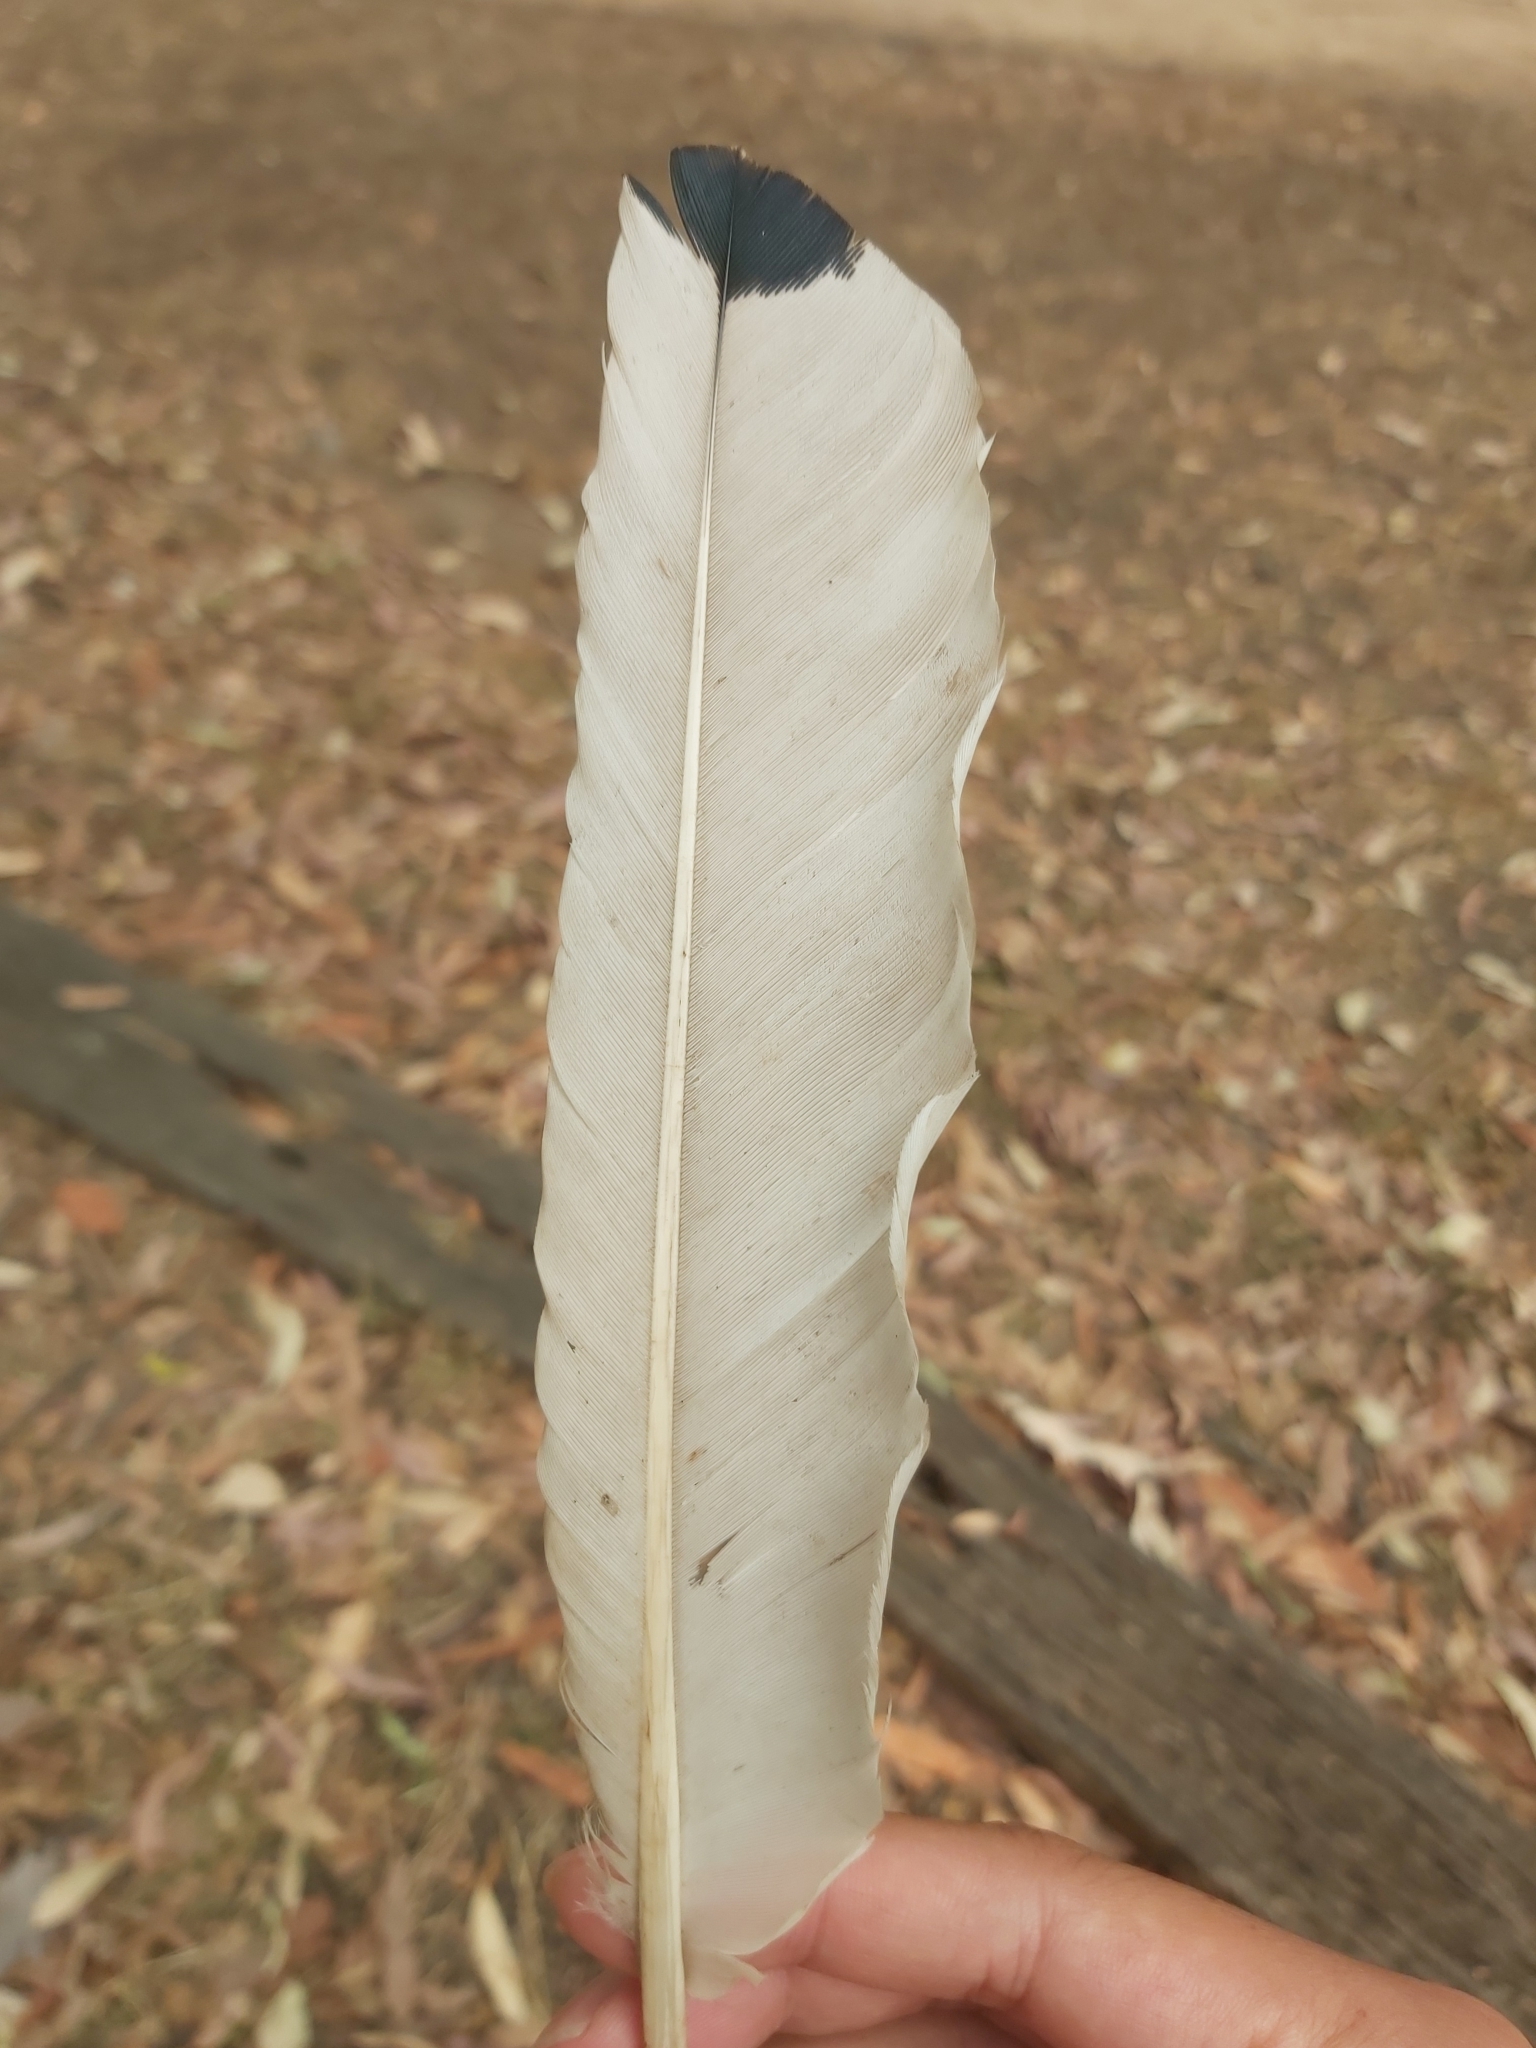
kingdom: Animalia
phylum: Chordata
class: Aves
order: Pelecaniformes
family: Threskiornithidae
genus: Threskiornis
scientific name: Threskiornis molucca
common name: Australian white ibis
